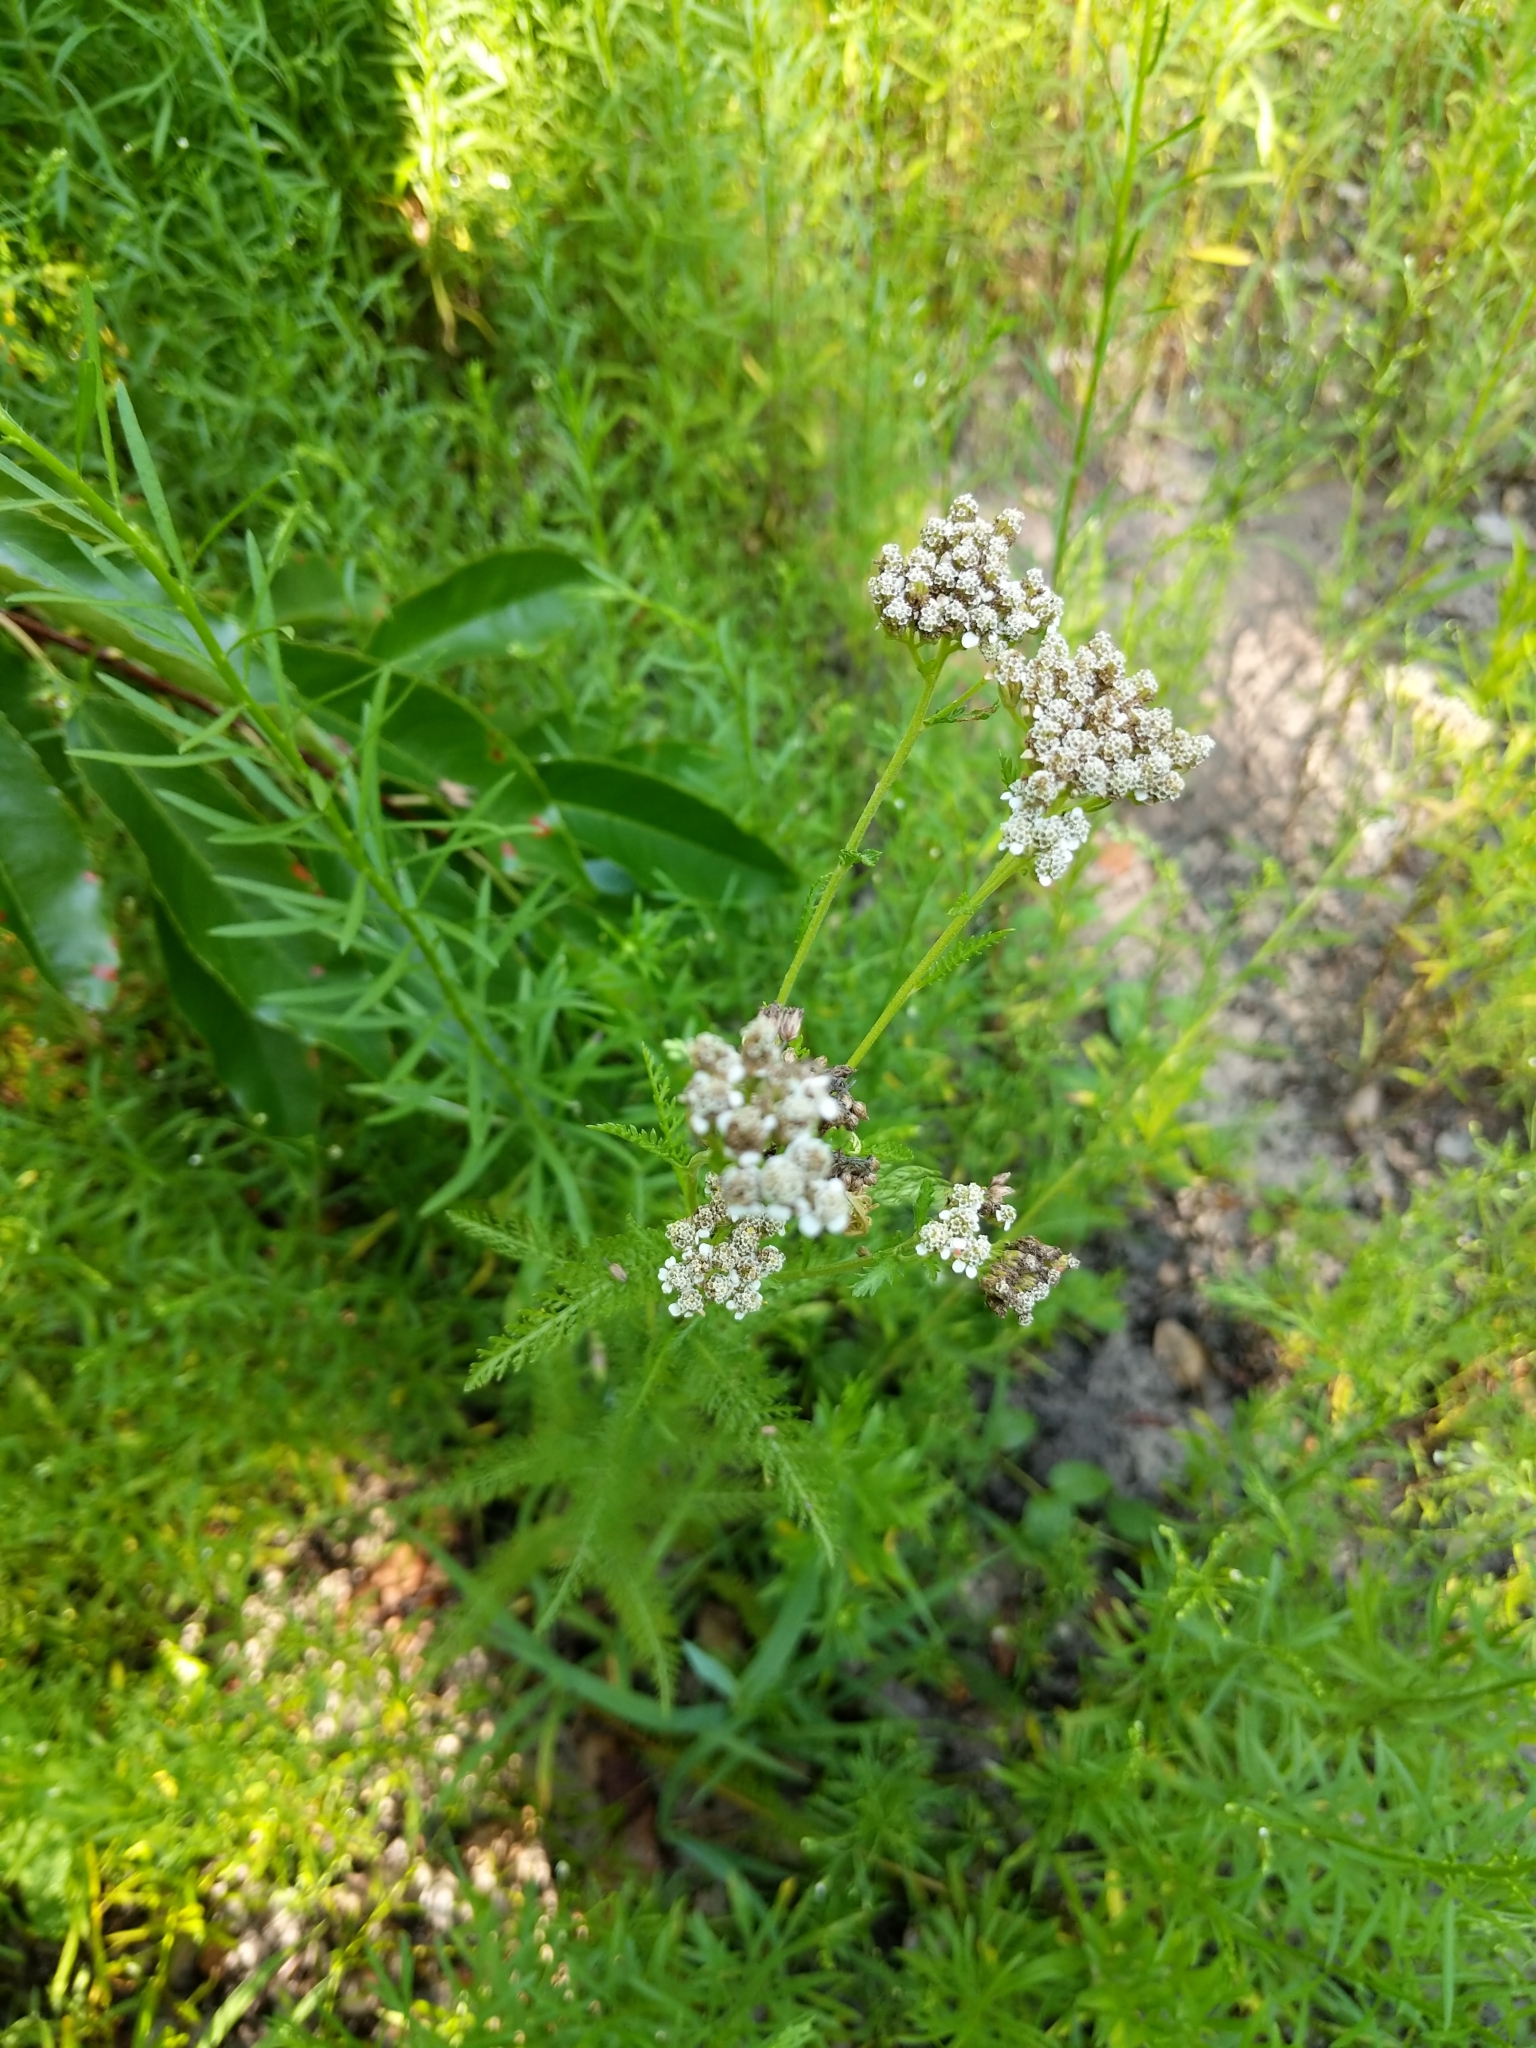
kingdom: Plantae
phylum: Tracheophyta
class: Magnoliopsida
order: Asterales
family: Asteraceae
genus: Achillea
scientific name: Achillea millefolium
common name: Yarrow
